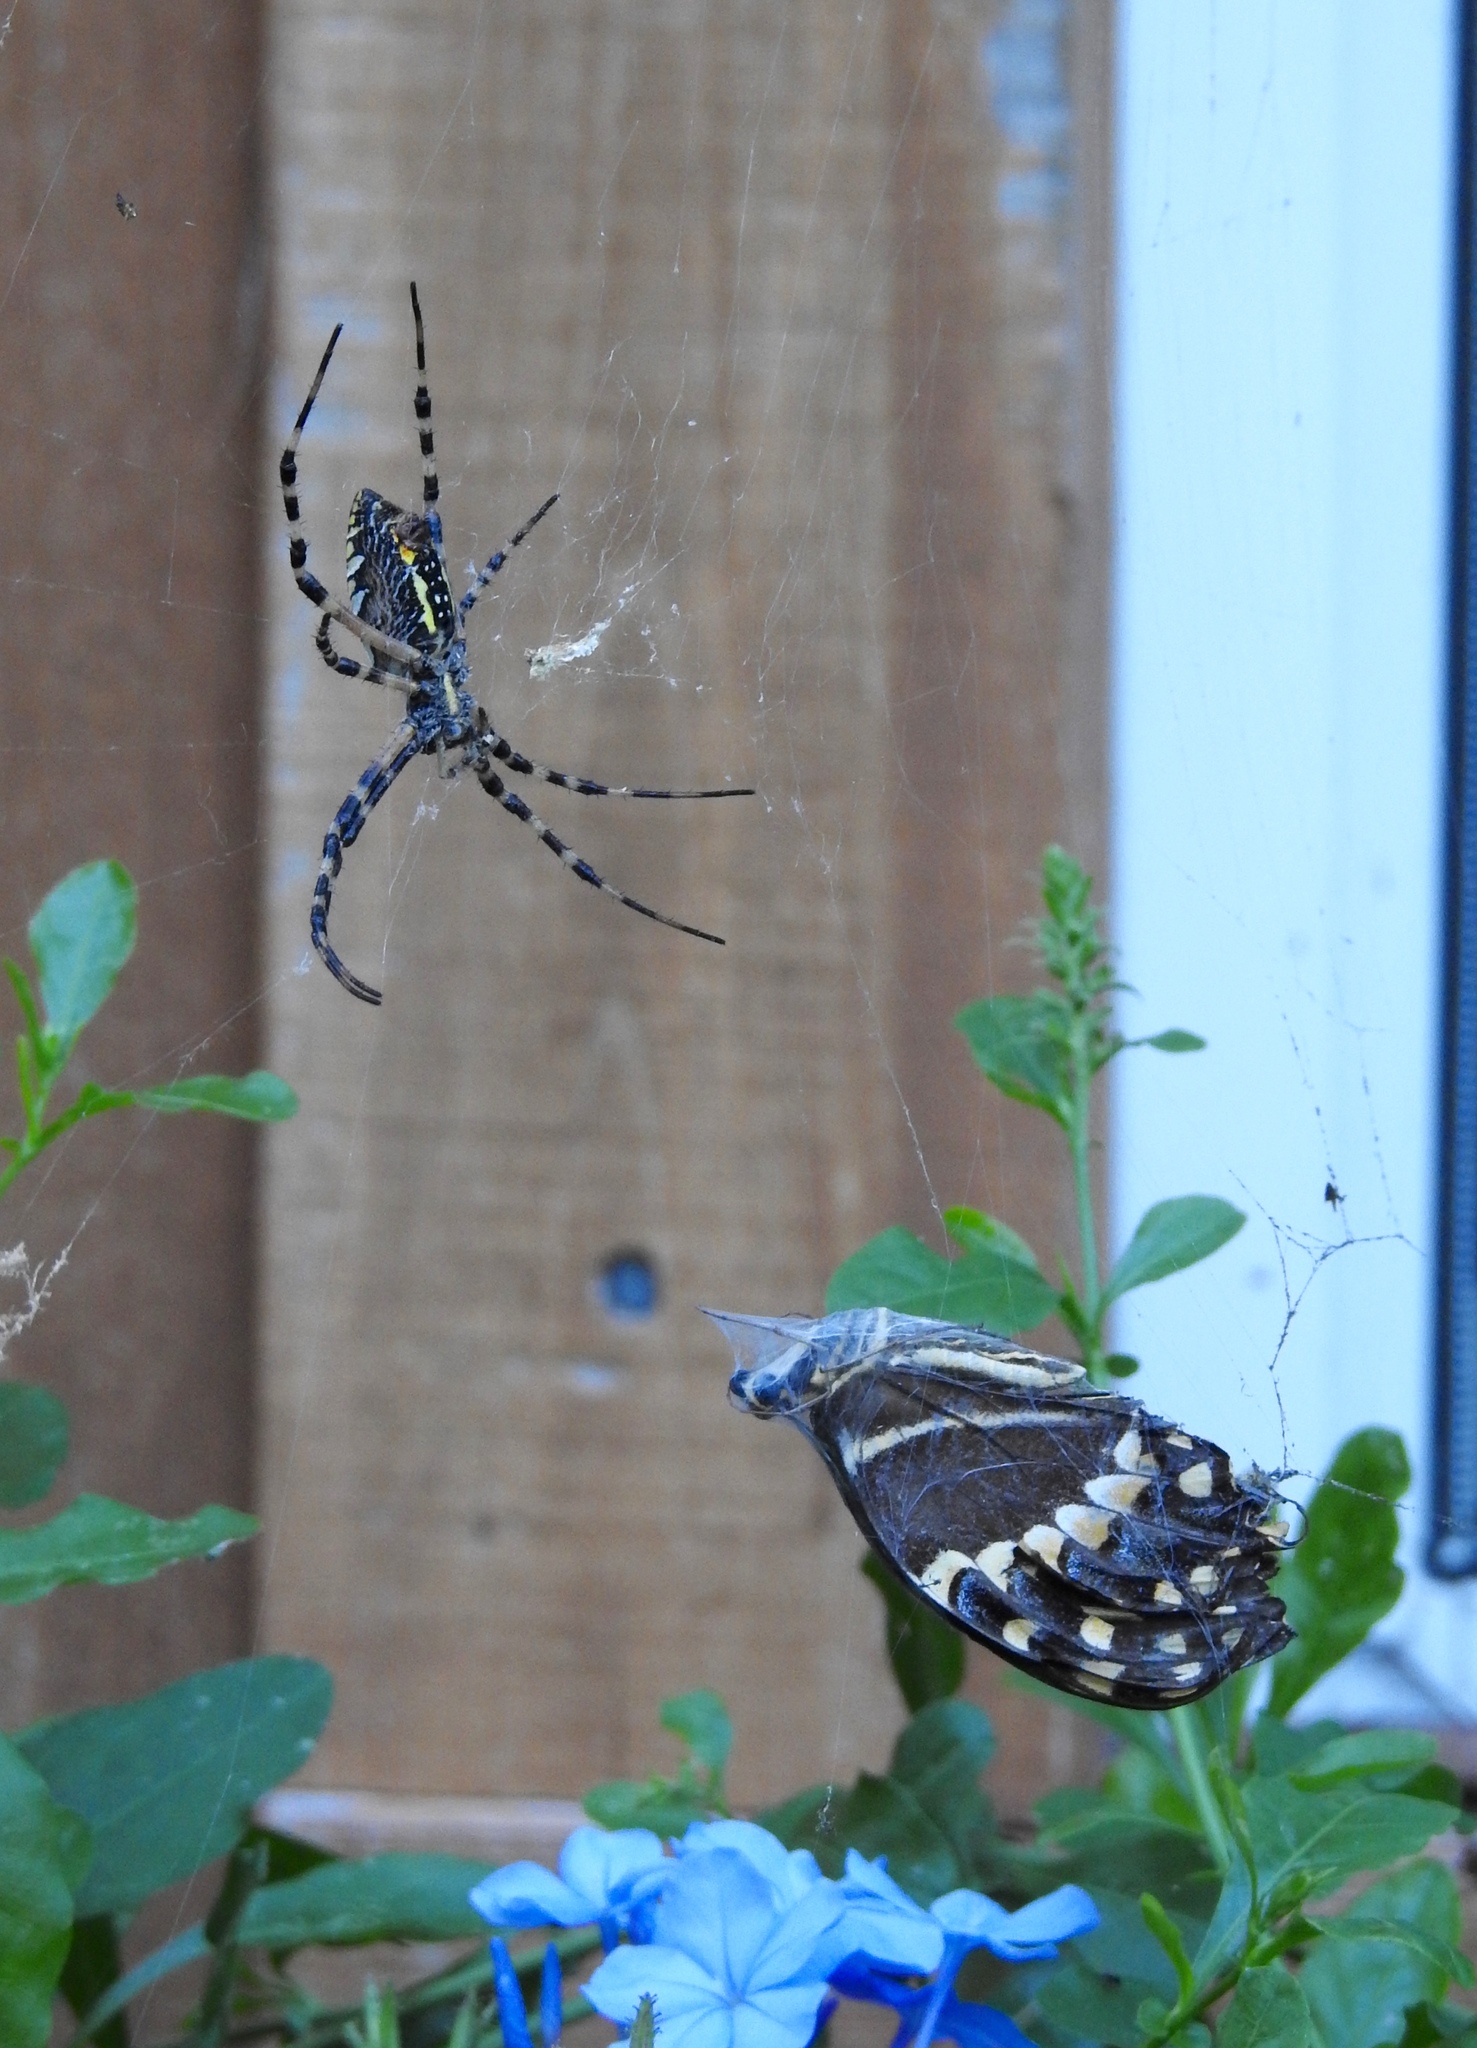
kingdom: Animalia
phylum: Arthropoda
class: Arachnida
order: Araneae
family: Araneidae
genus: Argiope
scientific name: Argiope aurantia
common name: Orb weavers
